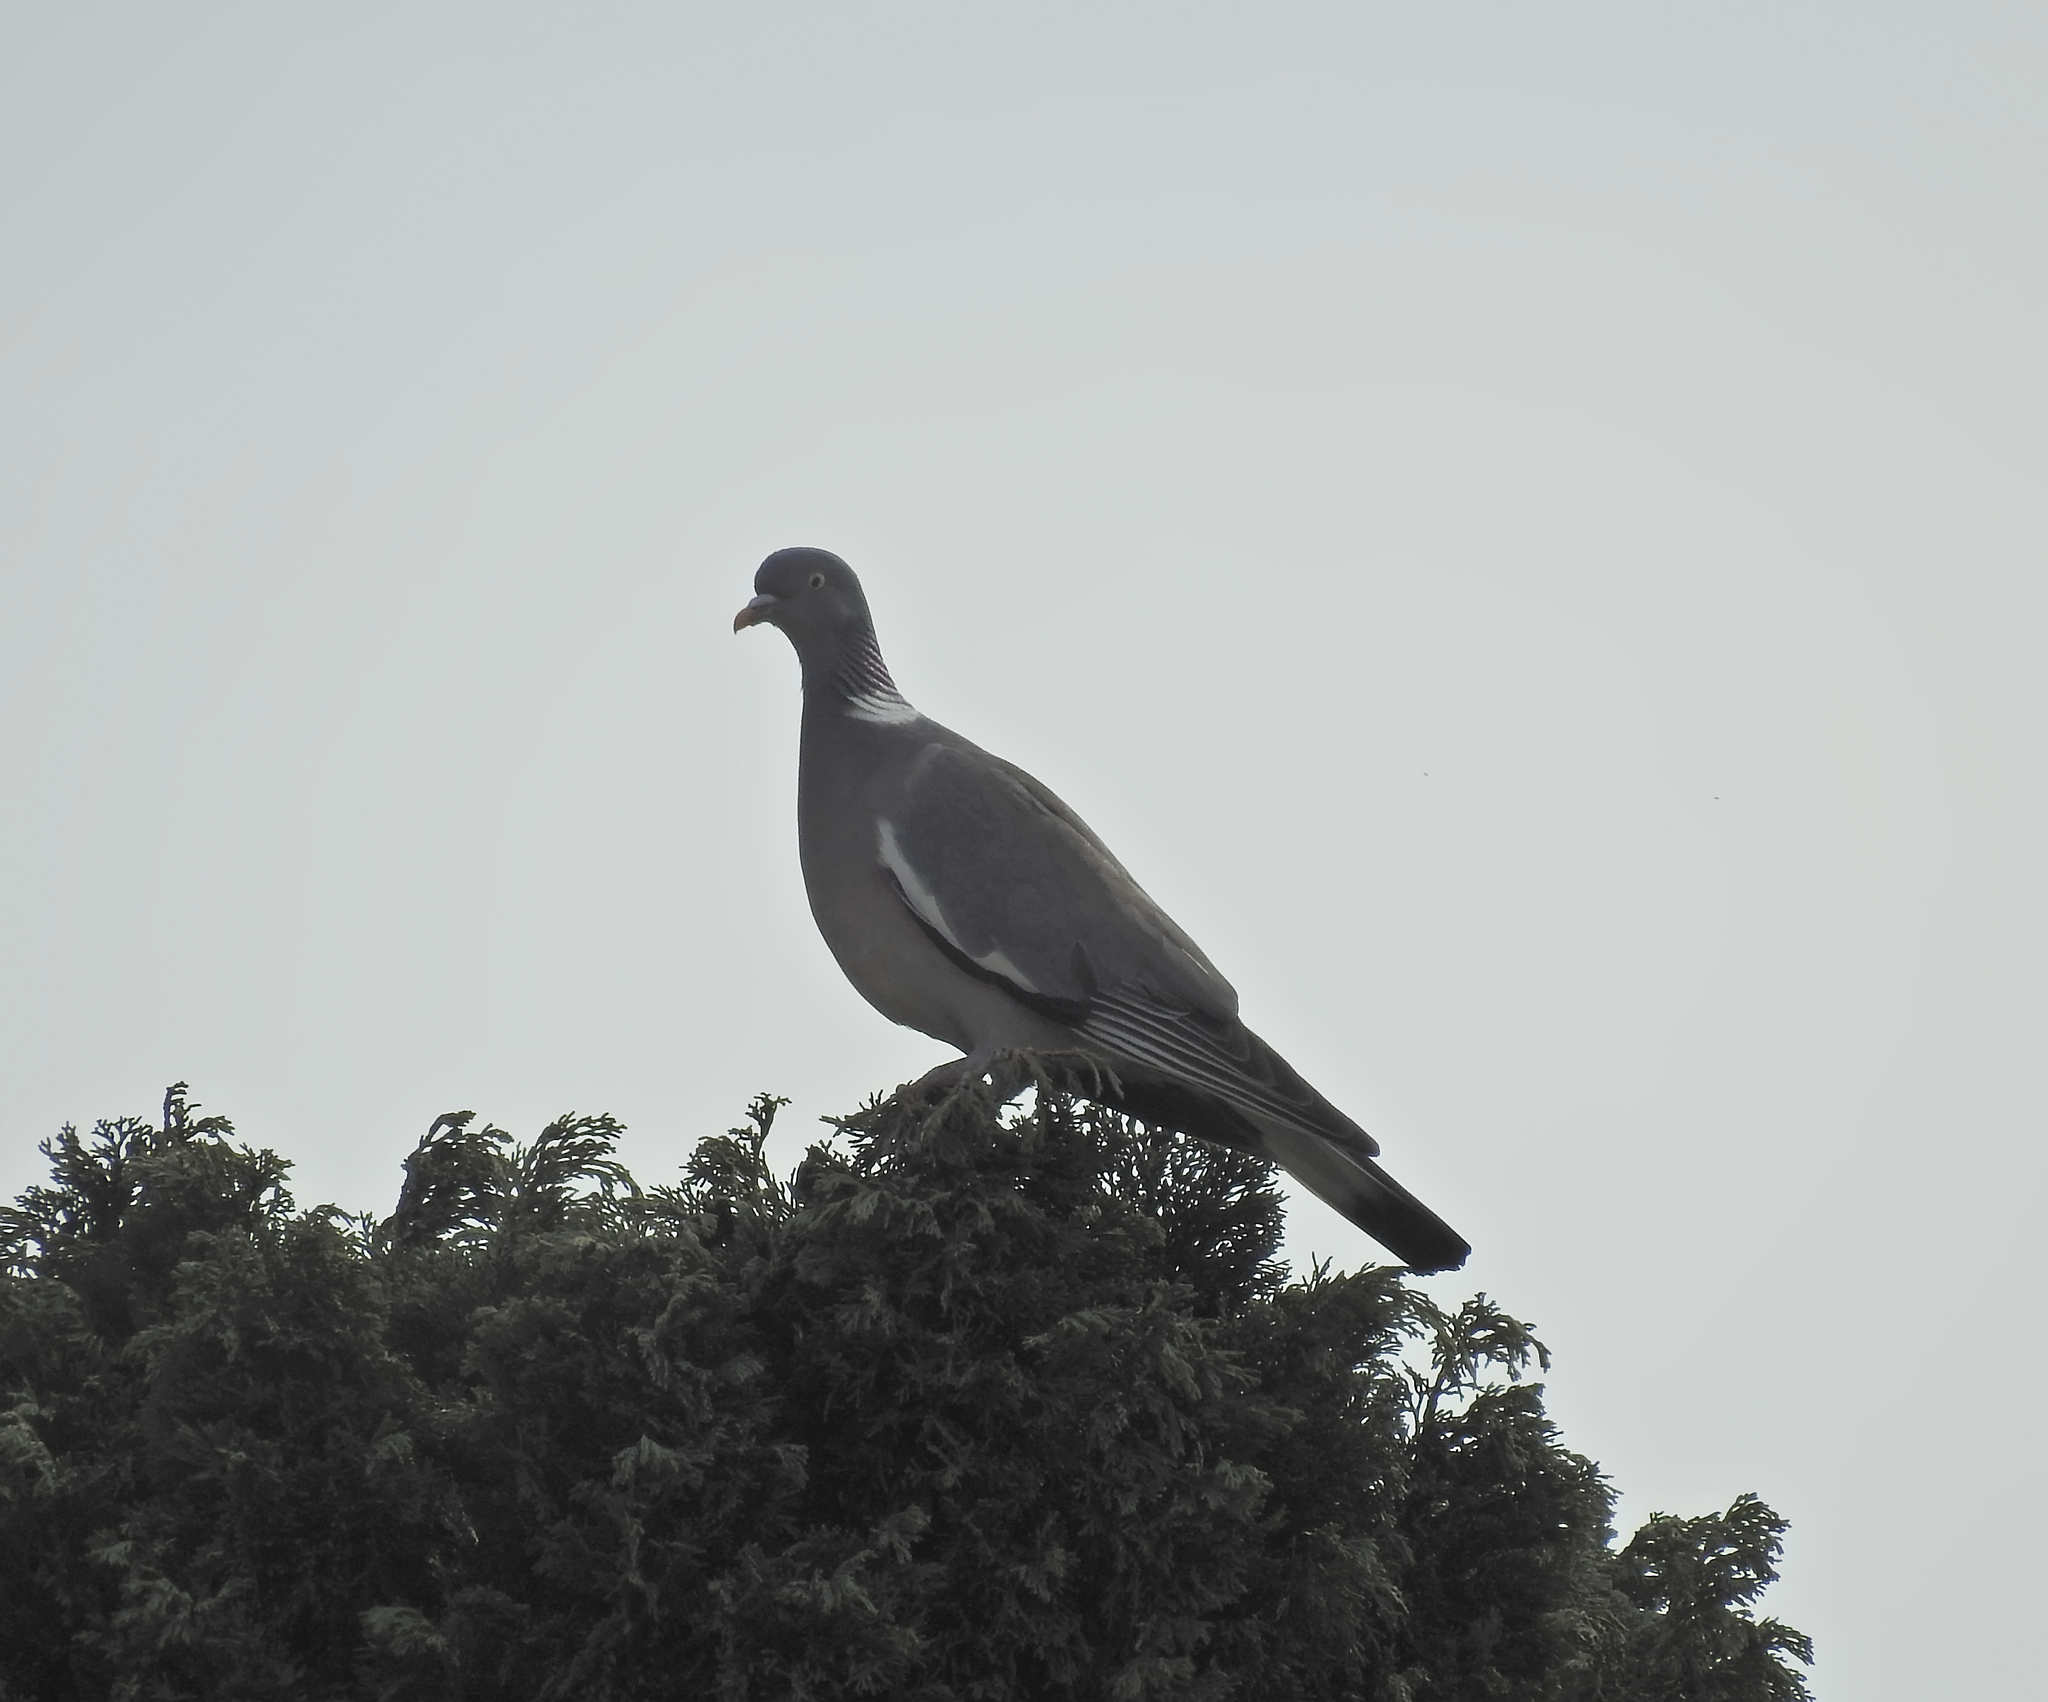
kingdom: Animalia
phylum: Chordata
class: Aves
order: Columbiformes
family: Columbidae
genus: Columba
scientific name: Columba palumbus
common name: Common wood pigeon
